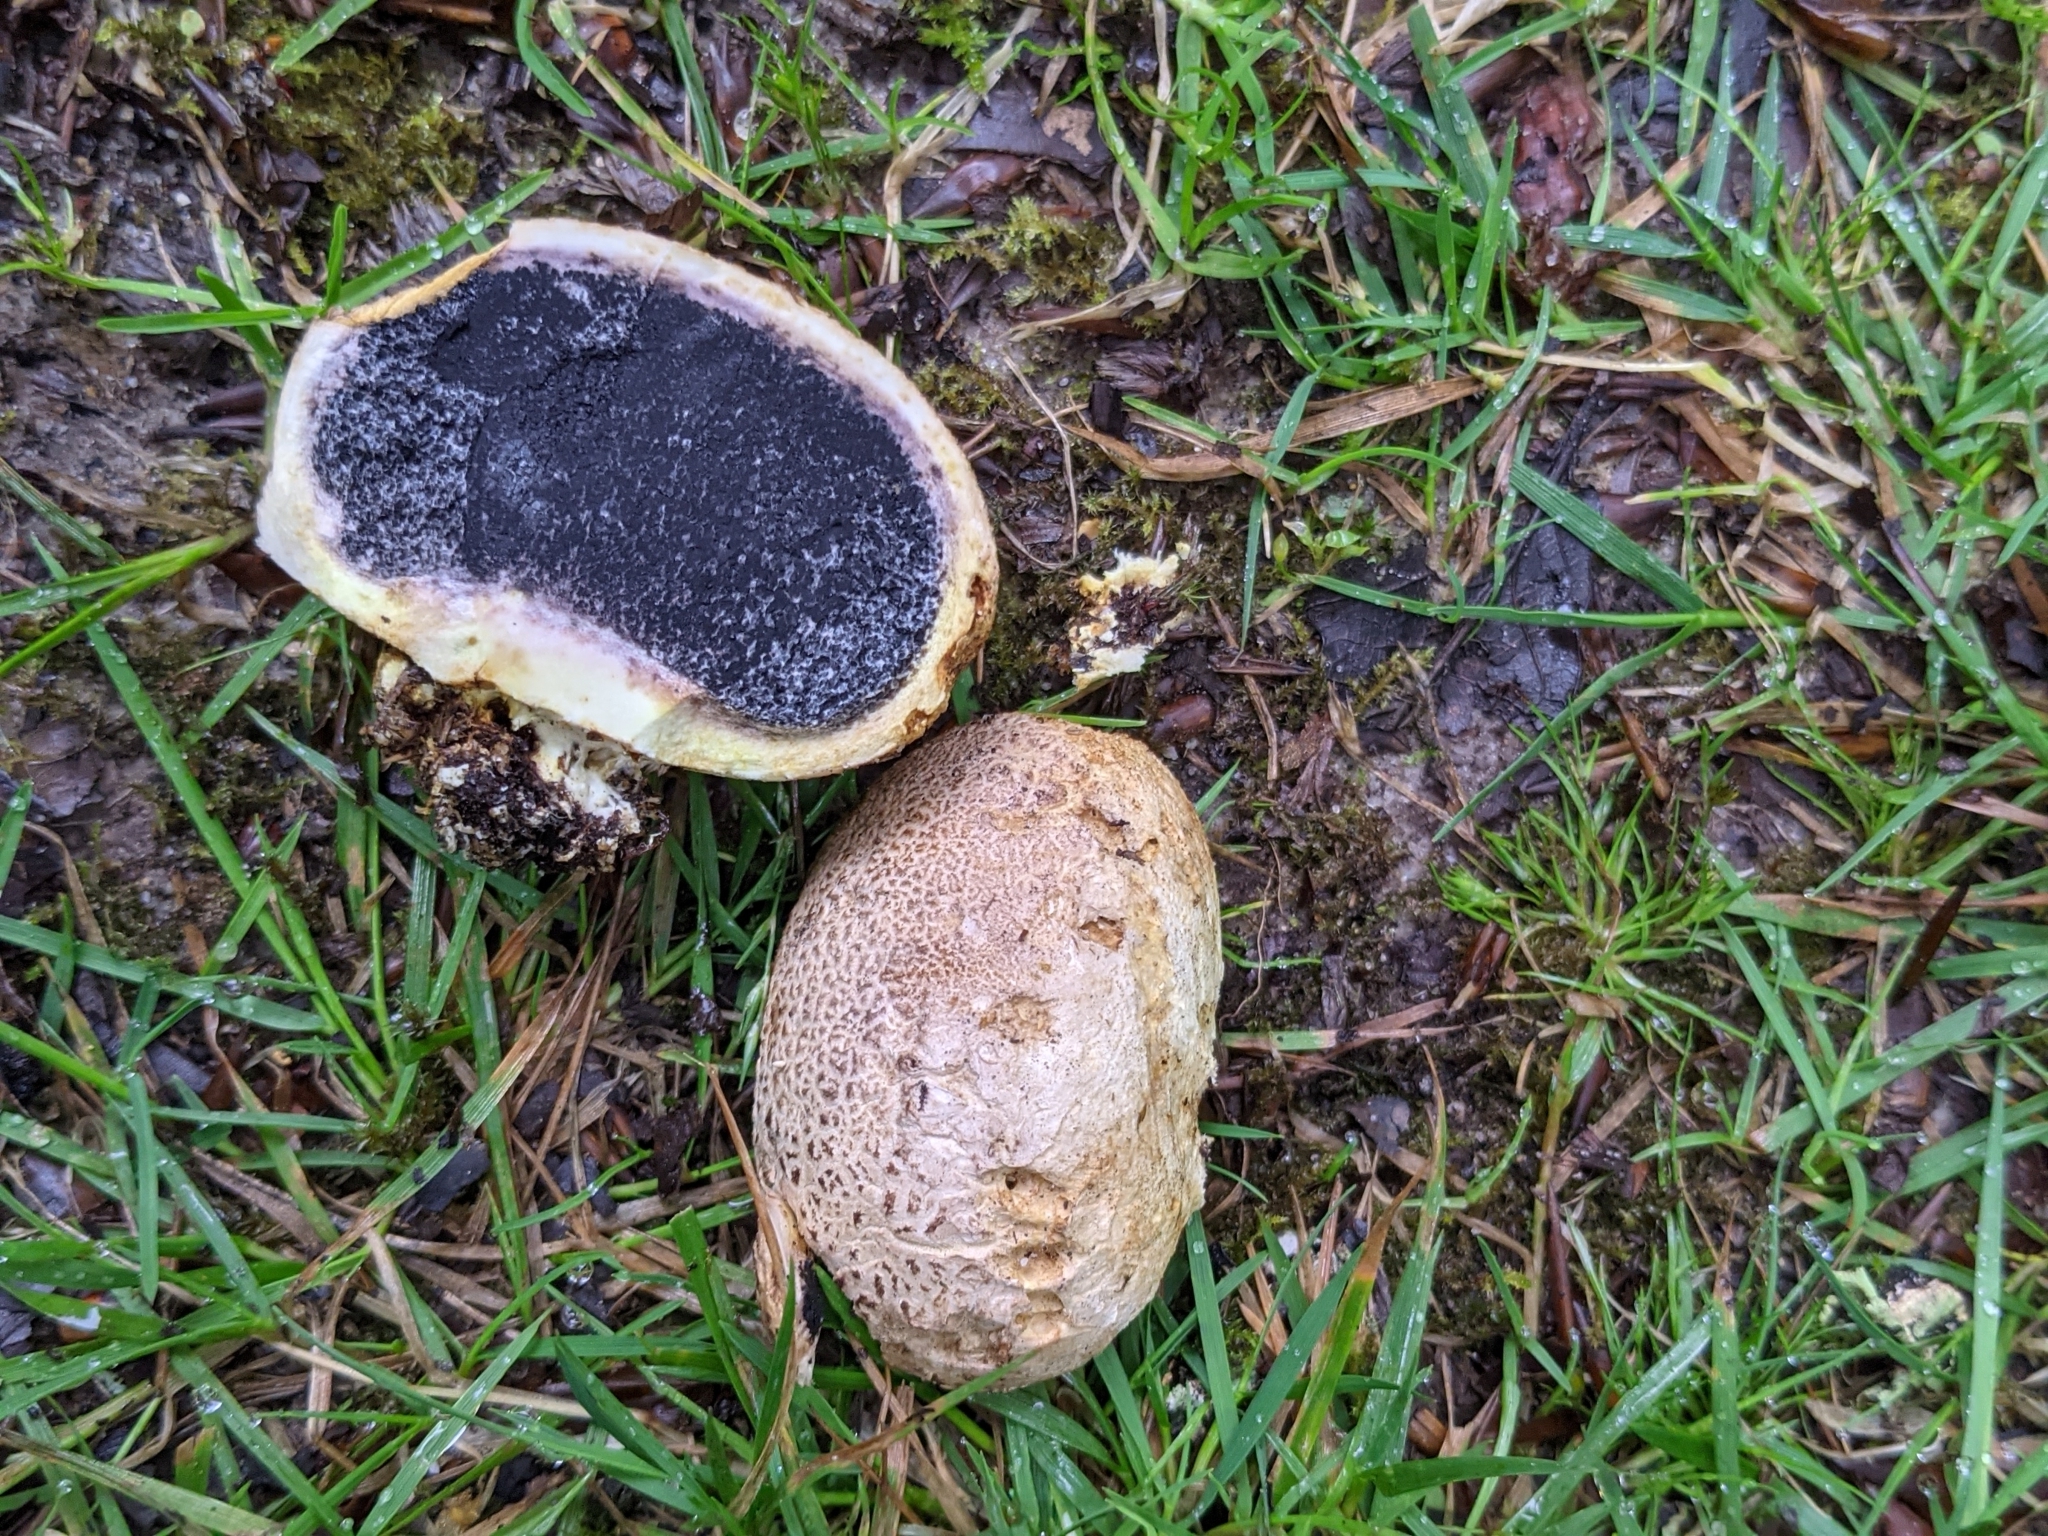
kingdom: Fungi
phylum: Basidiomycota
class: Agaricomycetes
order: Boletales
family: Sclerodermataceae
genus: Scleroderma
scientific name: Scleroderma citrinum
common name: Common earthball
